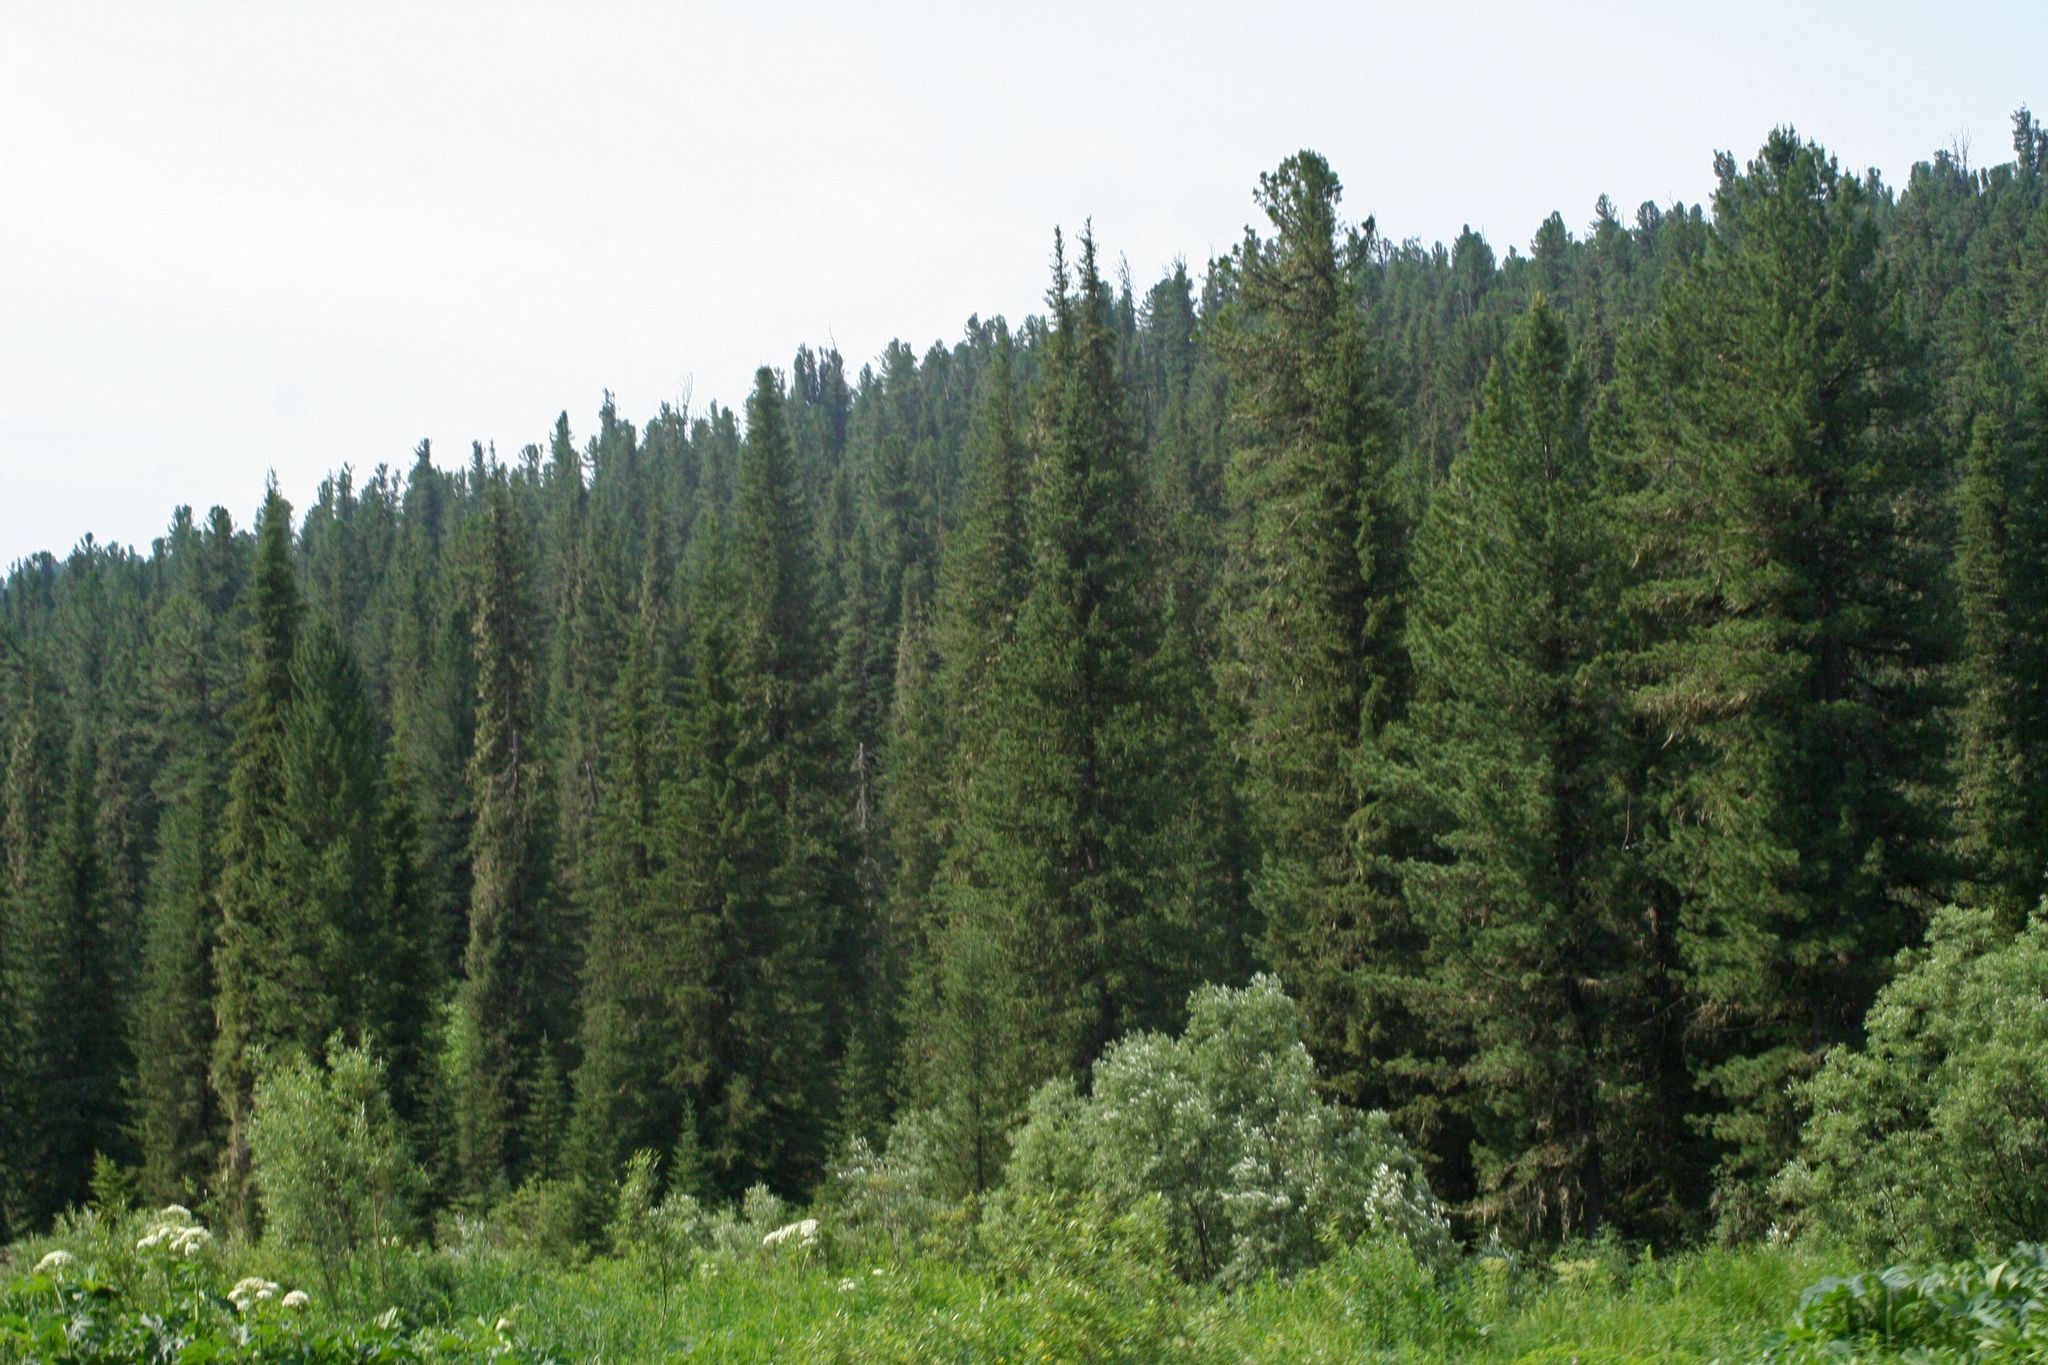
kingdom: Plantae
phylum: Tracheophyta
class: Pinopsida
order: Pinales
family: Pinaceae
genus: Pinus
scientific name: Pinus sibirica
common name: Siberian pine
